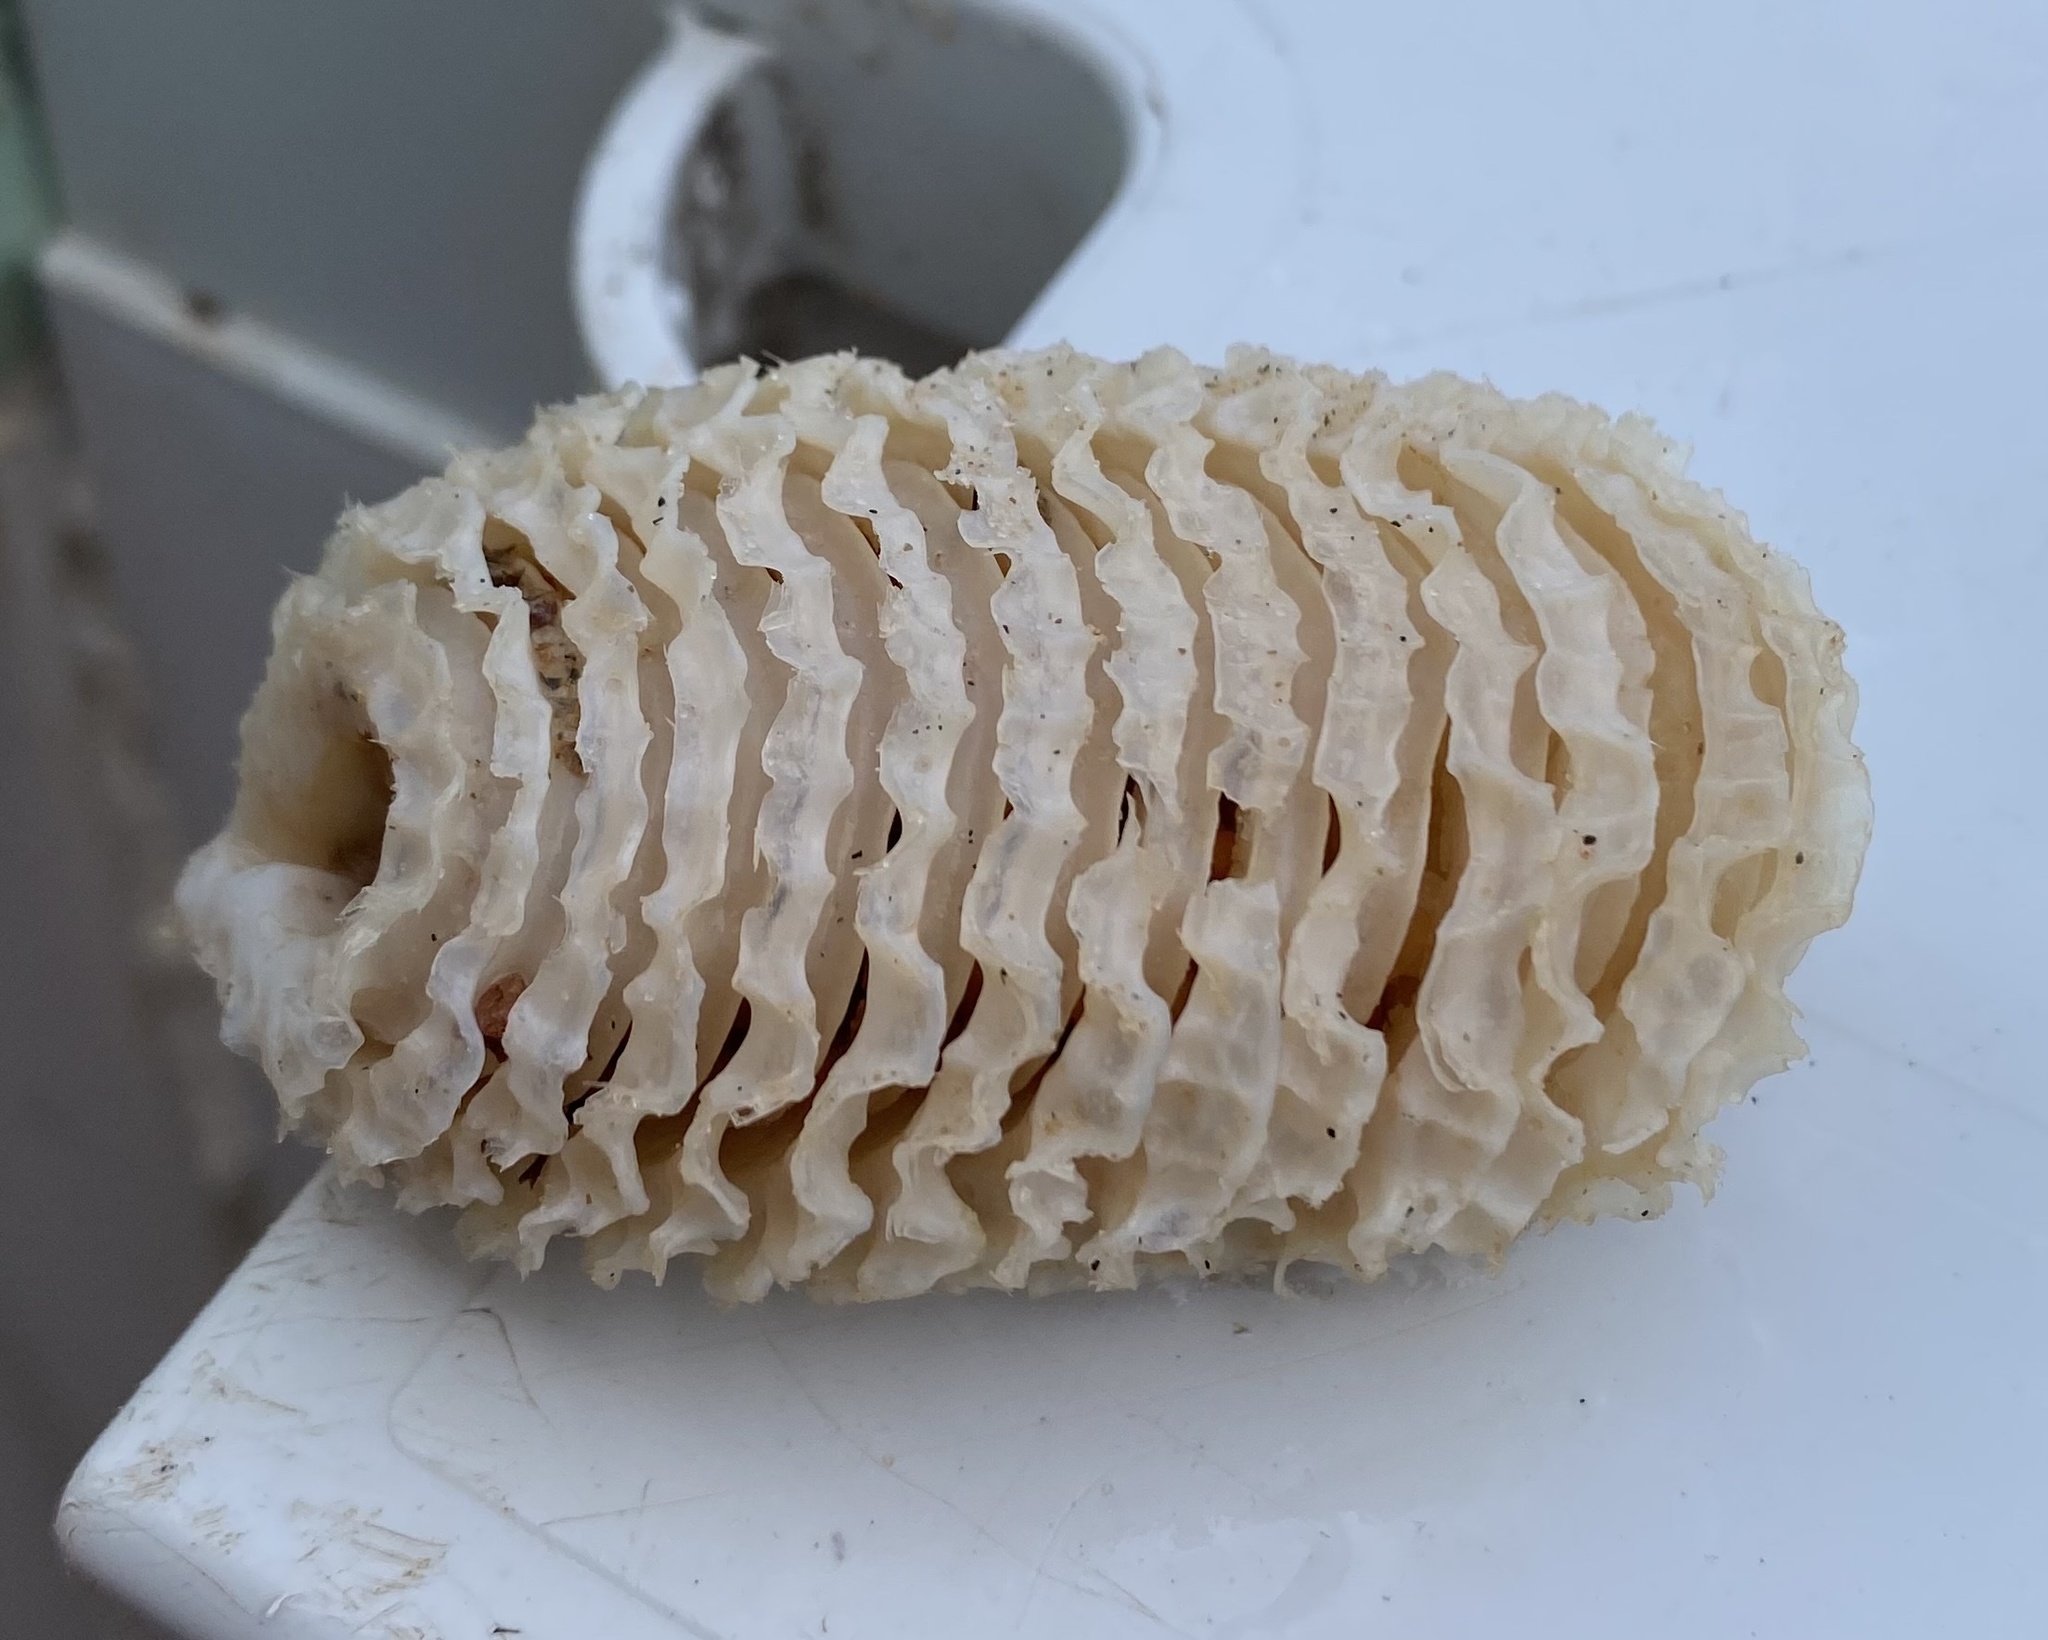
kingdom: Animalia
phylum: Mollusca
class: Gastropoda
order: Neogastropoda
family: Turbinellidae
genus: Turbinella
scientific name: Turbinella laevigata
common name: Brazilian chank
